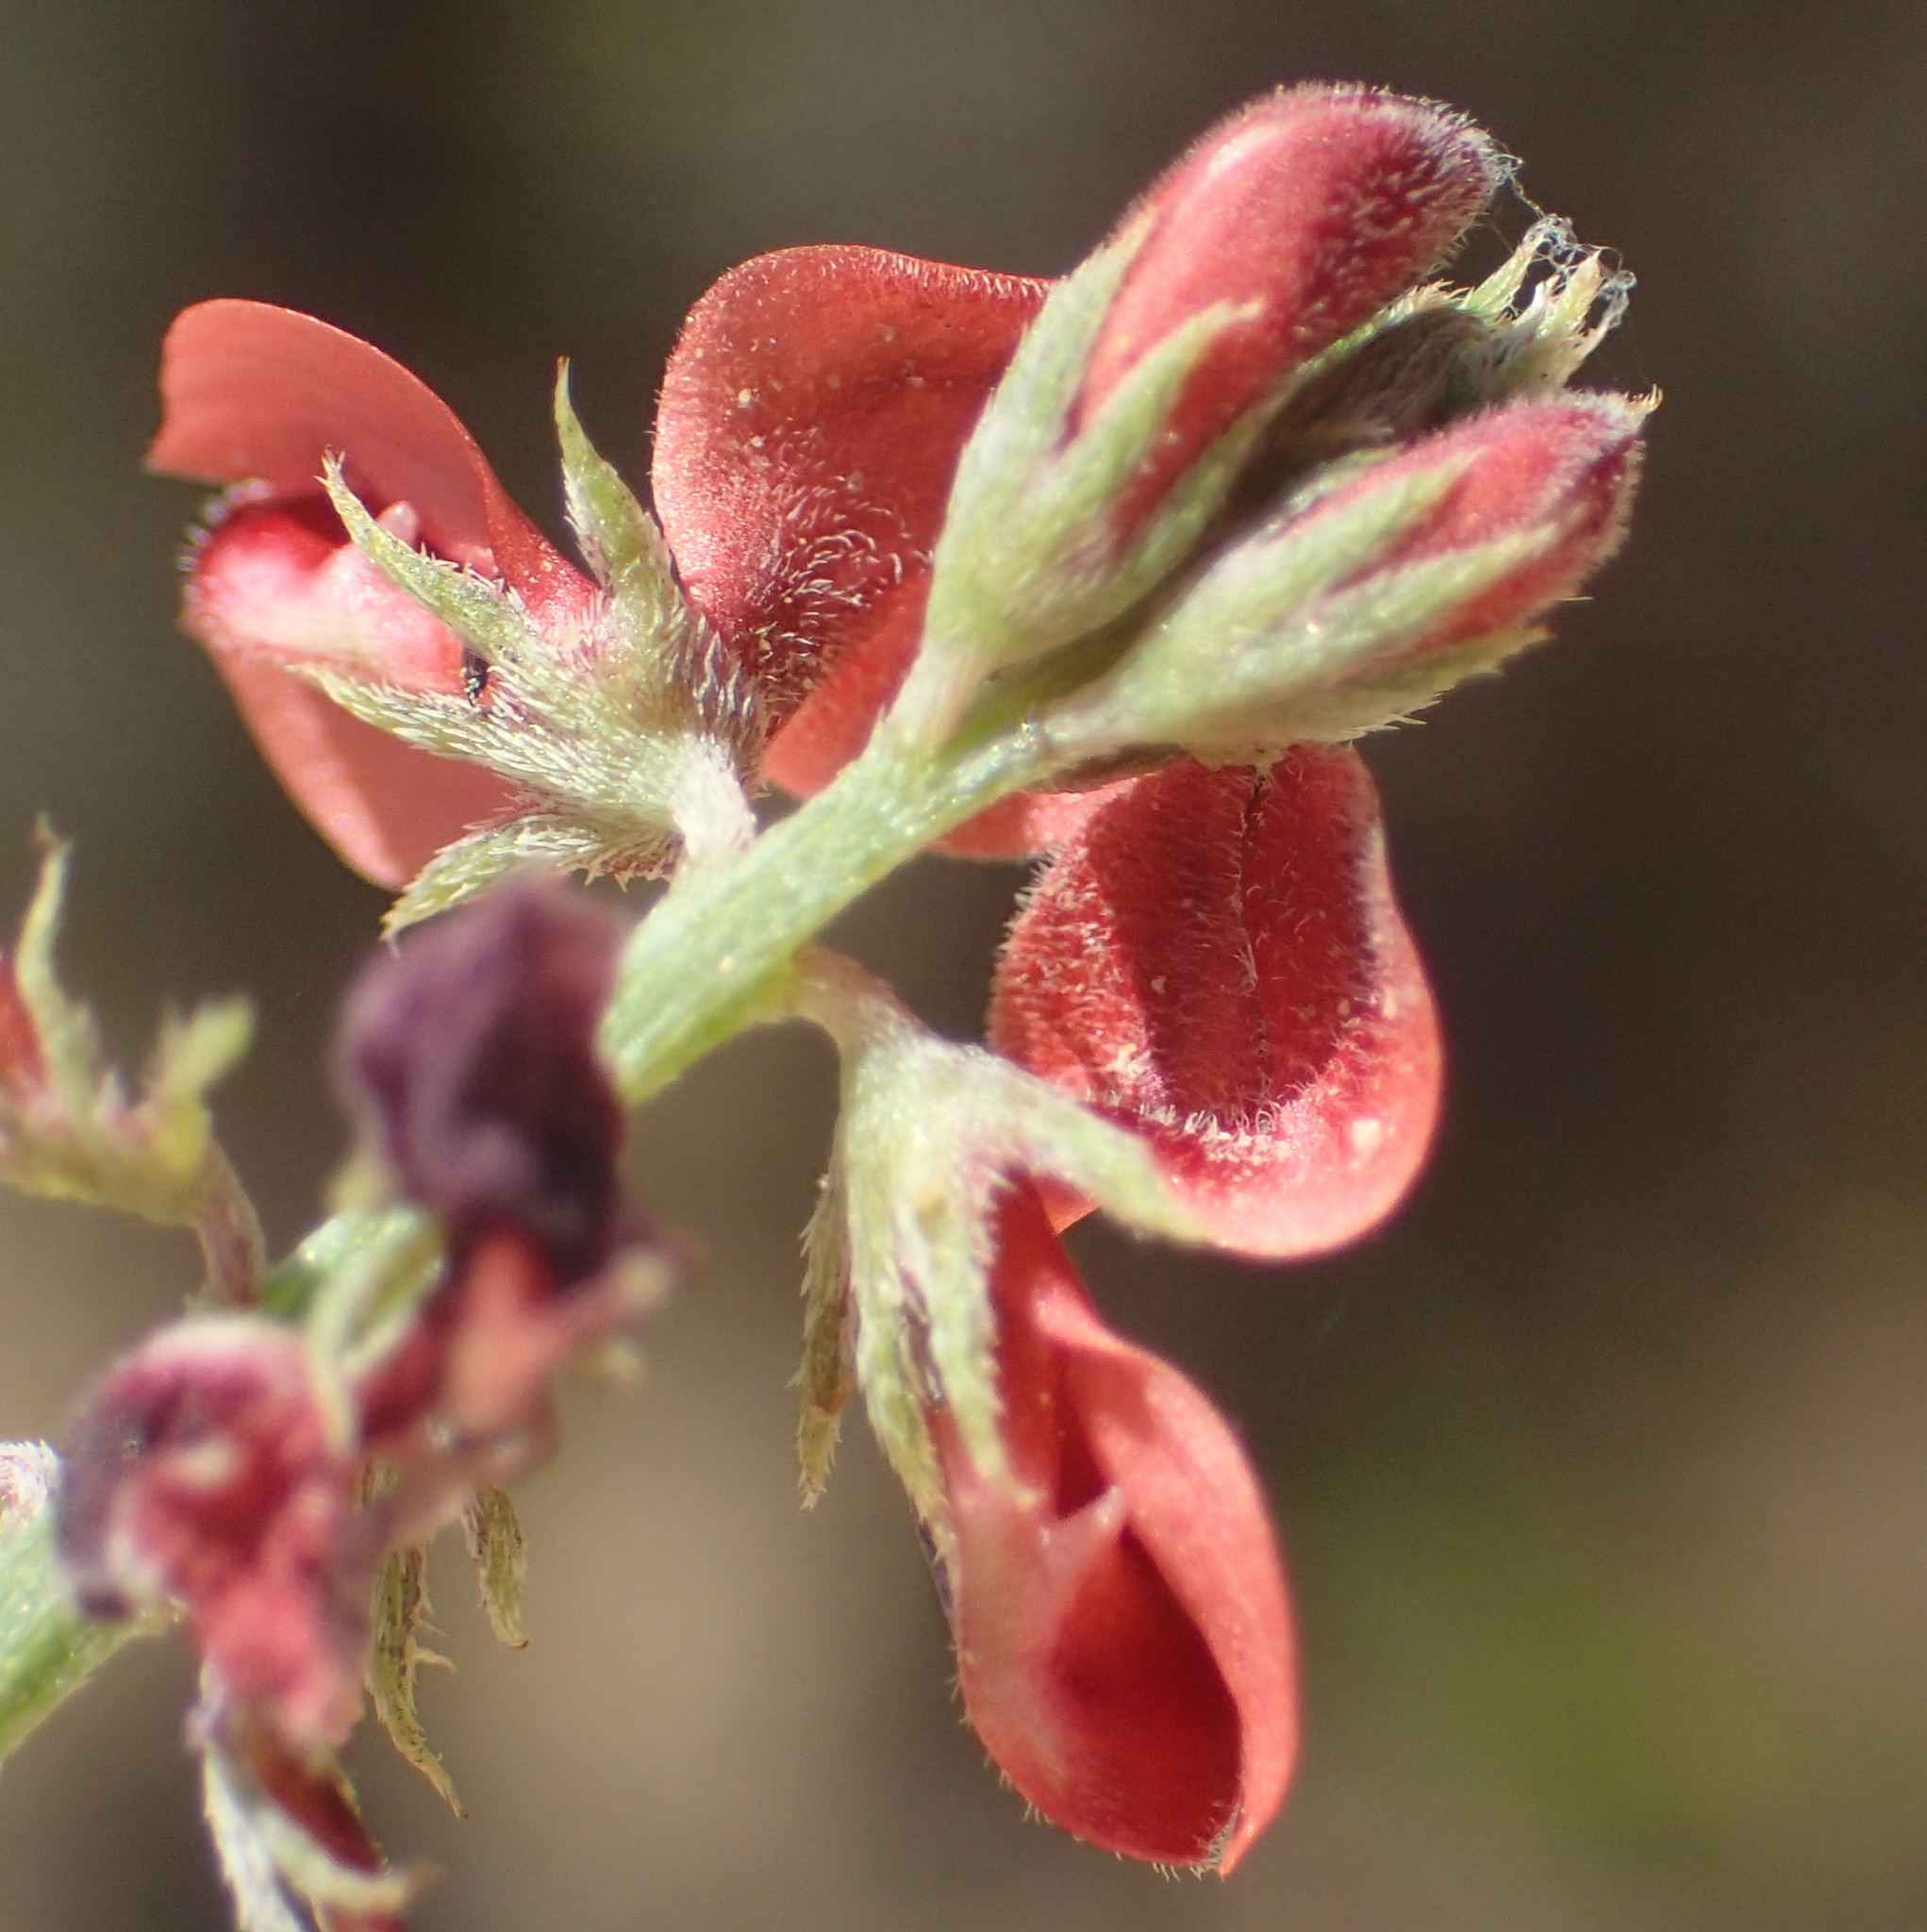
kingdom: Plantae
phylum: Tracheophyta
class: Magnoliopsida
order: Fabales
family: Fabaceae
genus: Indigofera
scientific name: Indigofera heterophylla
